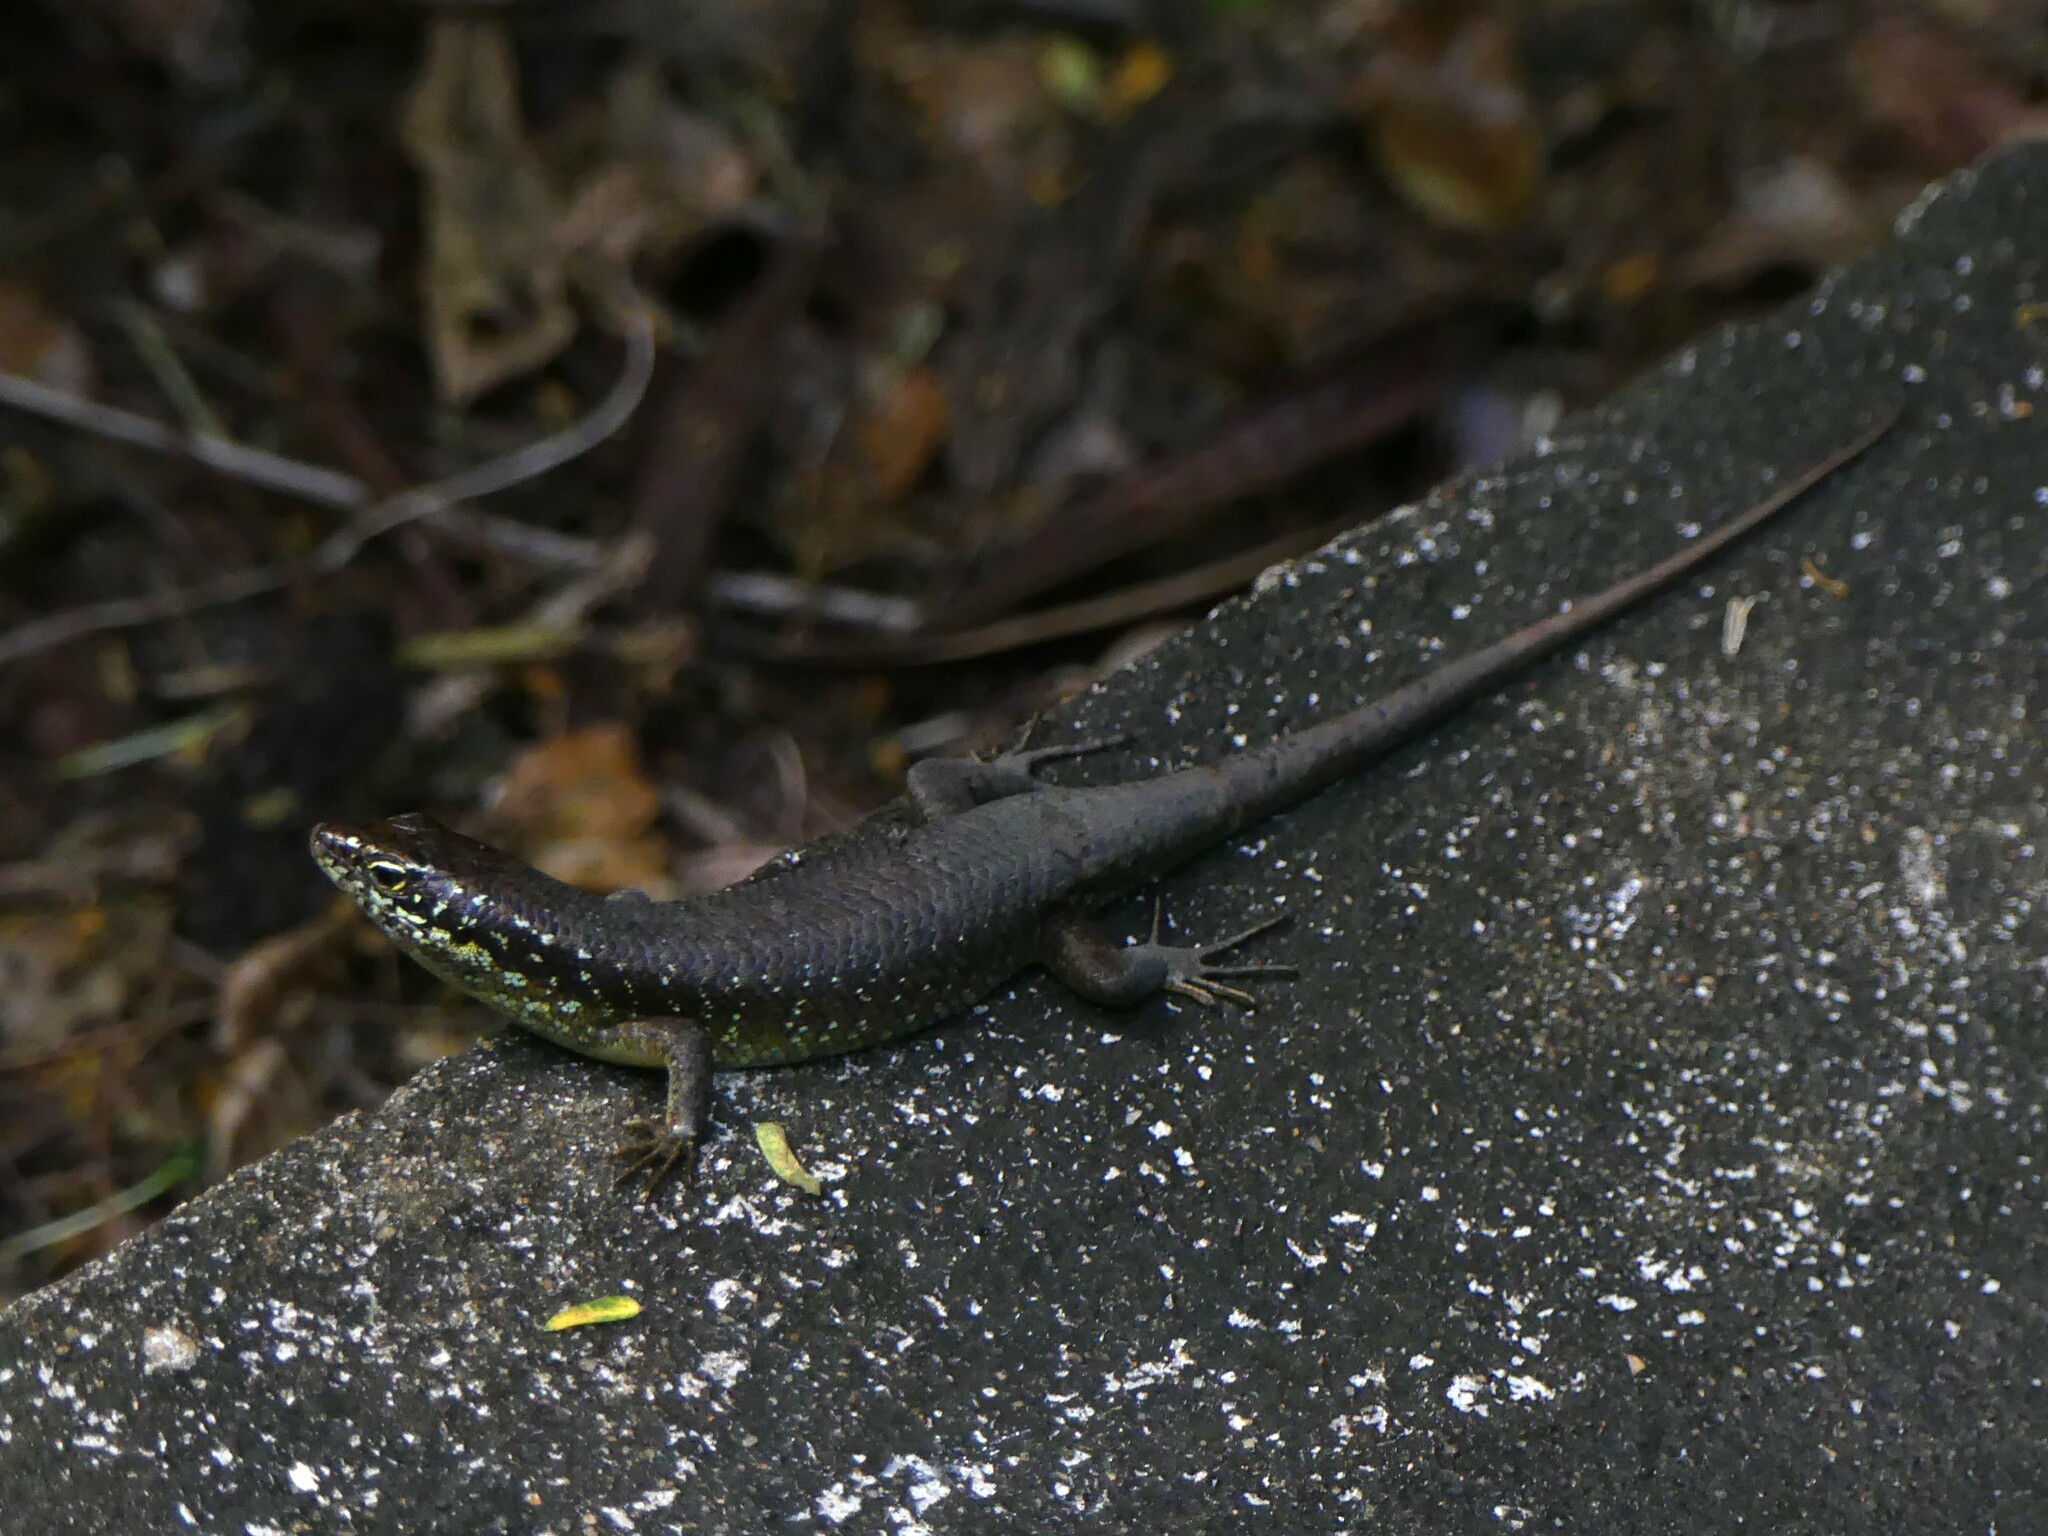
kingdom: Animalia
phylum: Chordata
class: Squamata
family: Scincidae
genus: Trachylepis
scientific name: Trachylepis comorensis
